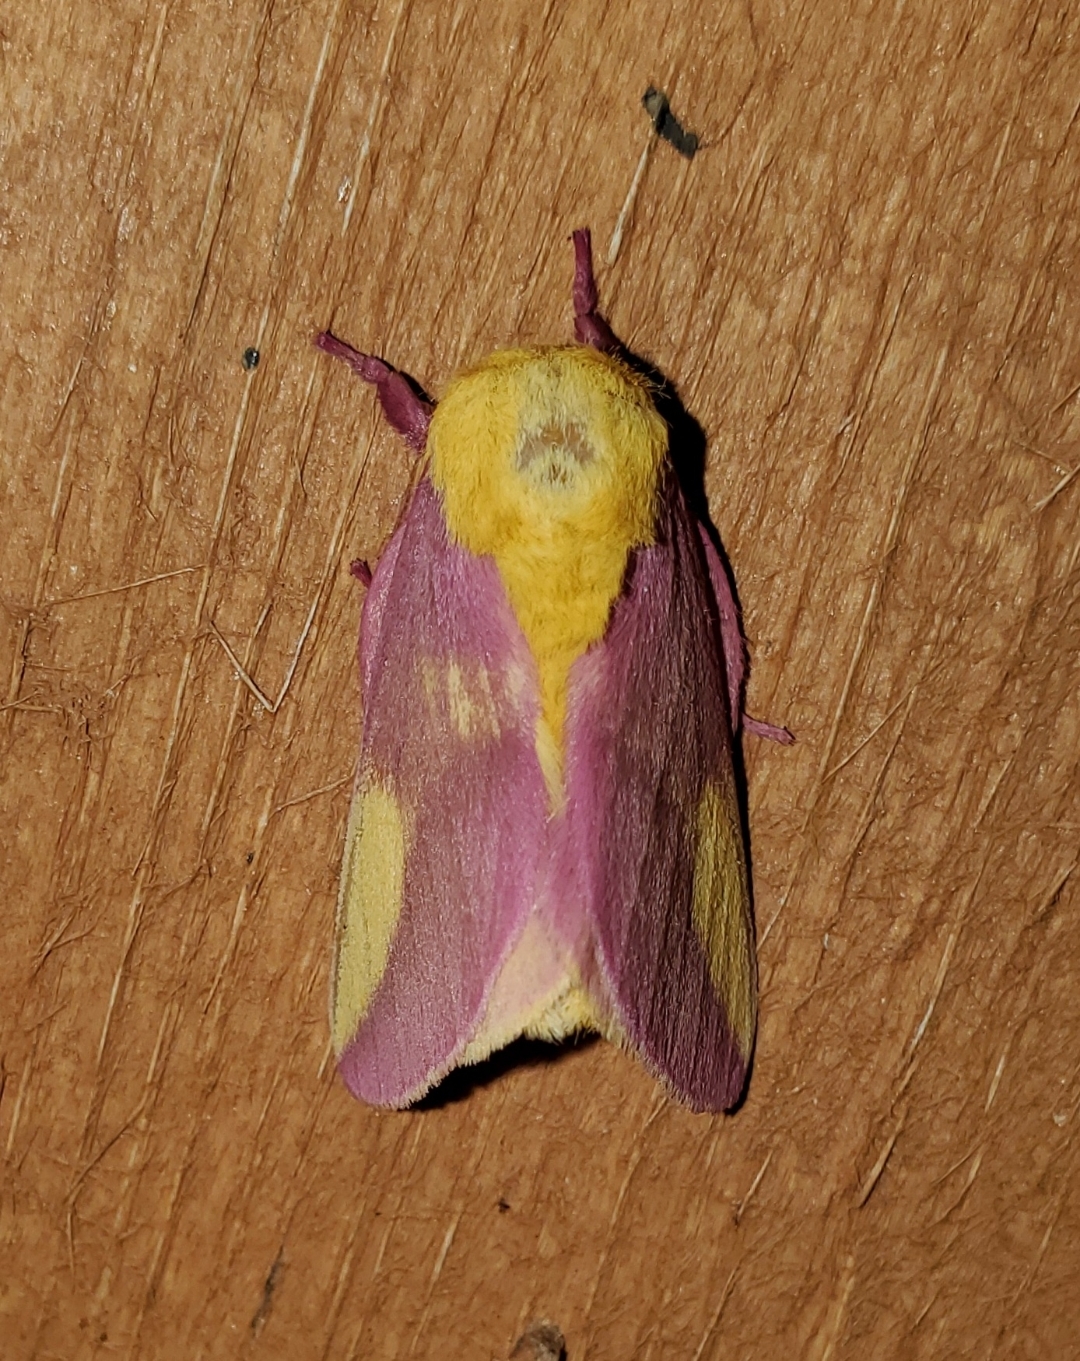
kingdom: Animalia
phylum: Arthropoda
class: Insecta
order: Lepidoptera
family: Saturniidae
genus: Dryocampa
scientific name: Dryocampa rubicunda
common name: Rosy maple moth
